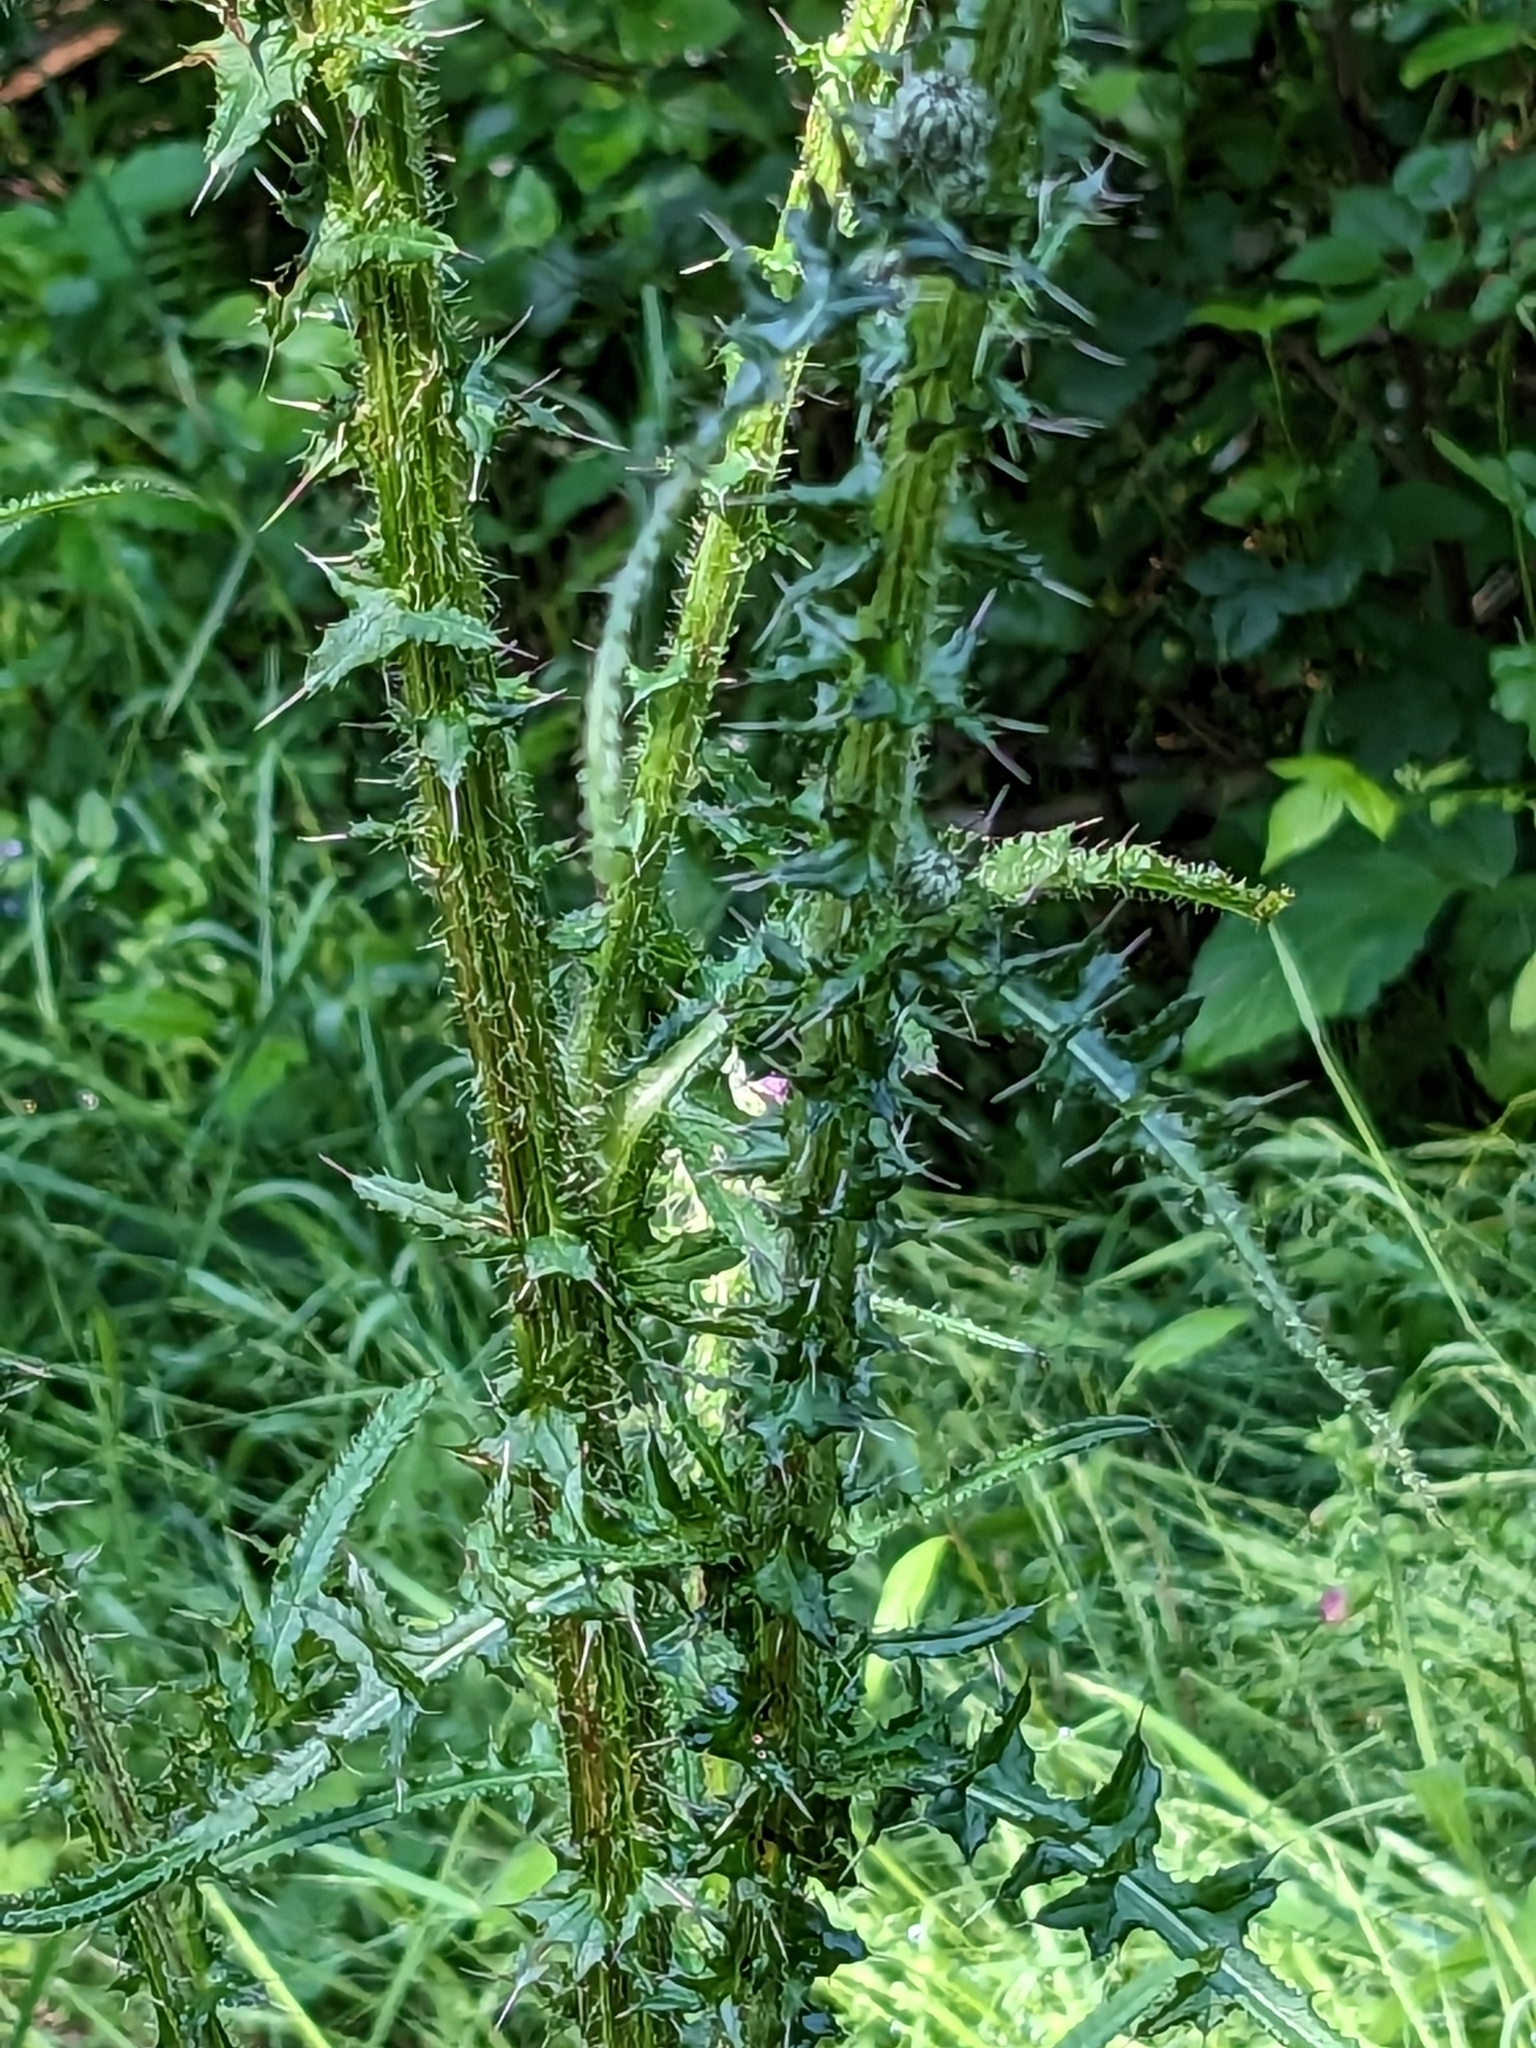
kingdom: Plantae
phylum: Tracheophyta
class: Magnoliopsida
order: Asterales
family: Asteraceae
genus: Cirsium
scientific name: Cirsium palustre
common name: Marsh thistle
